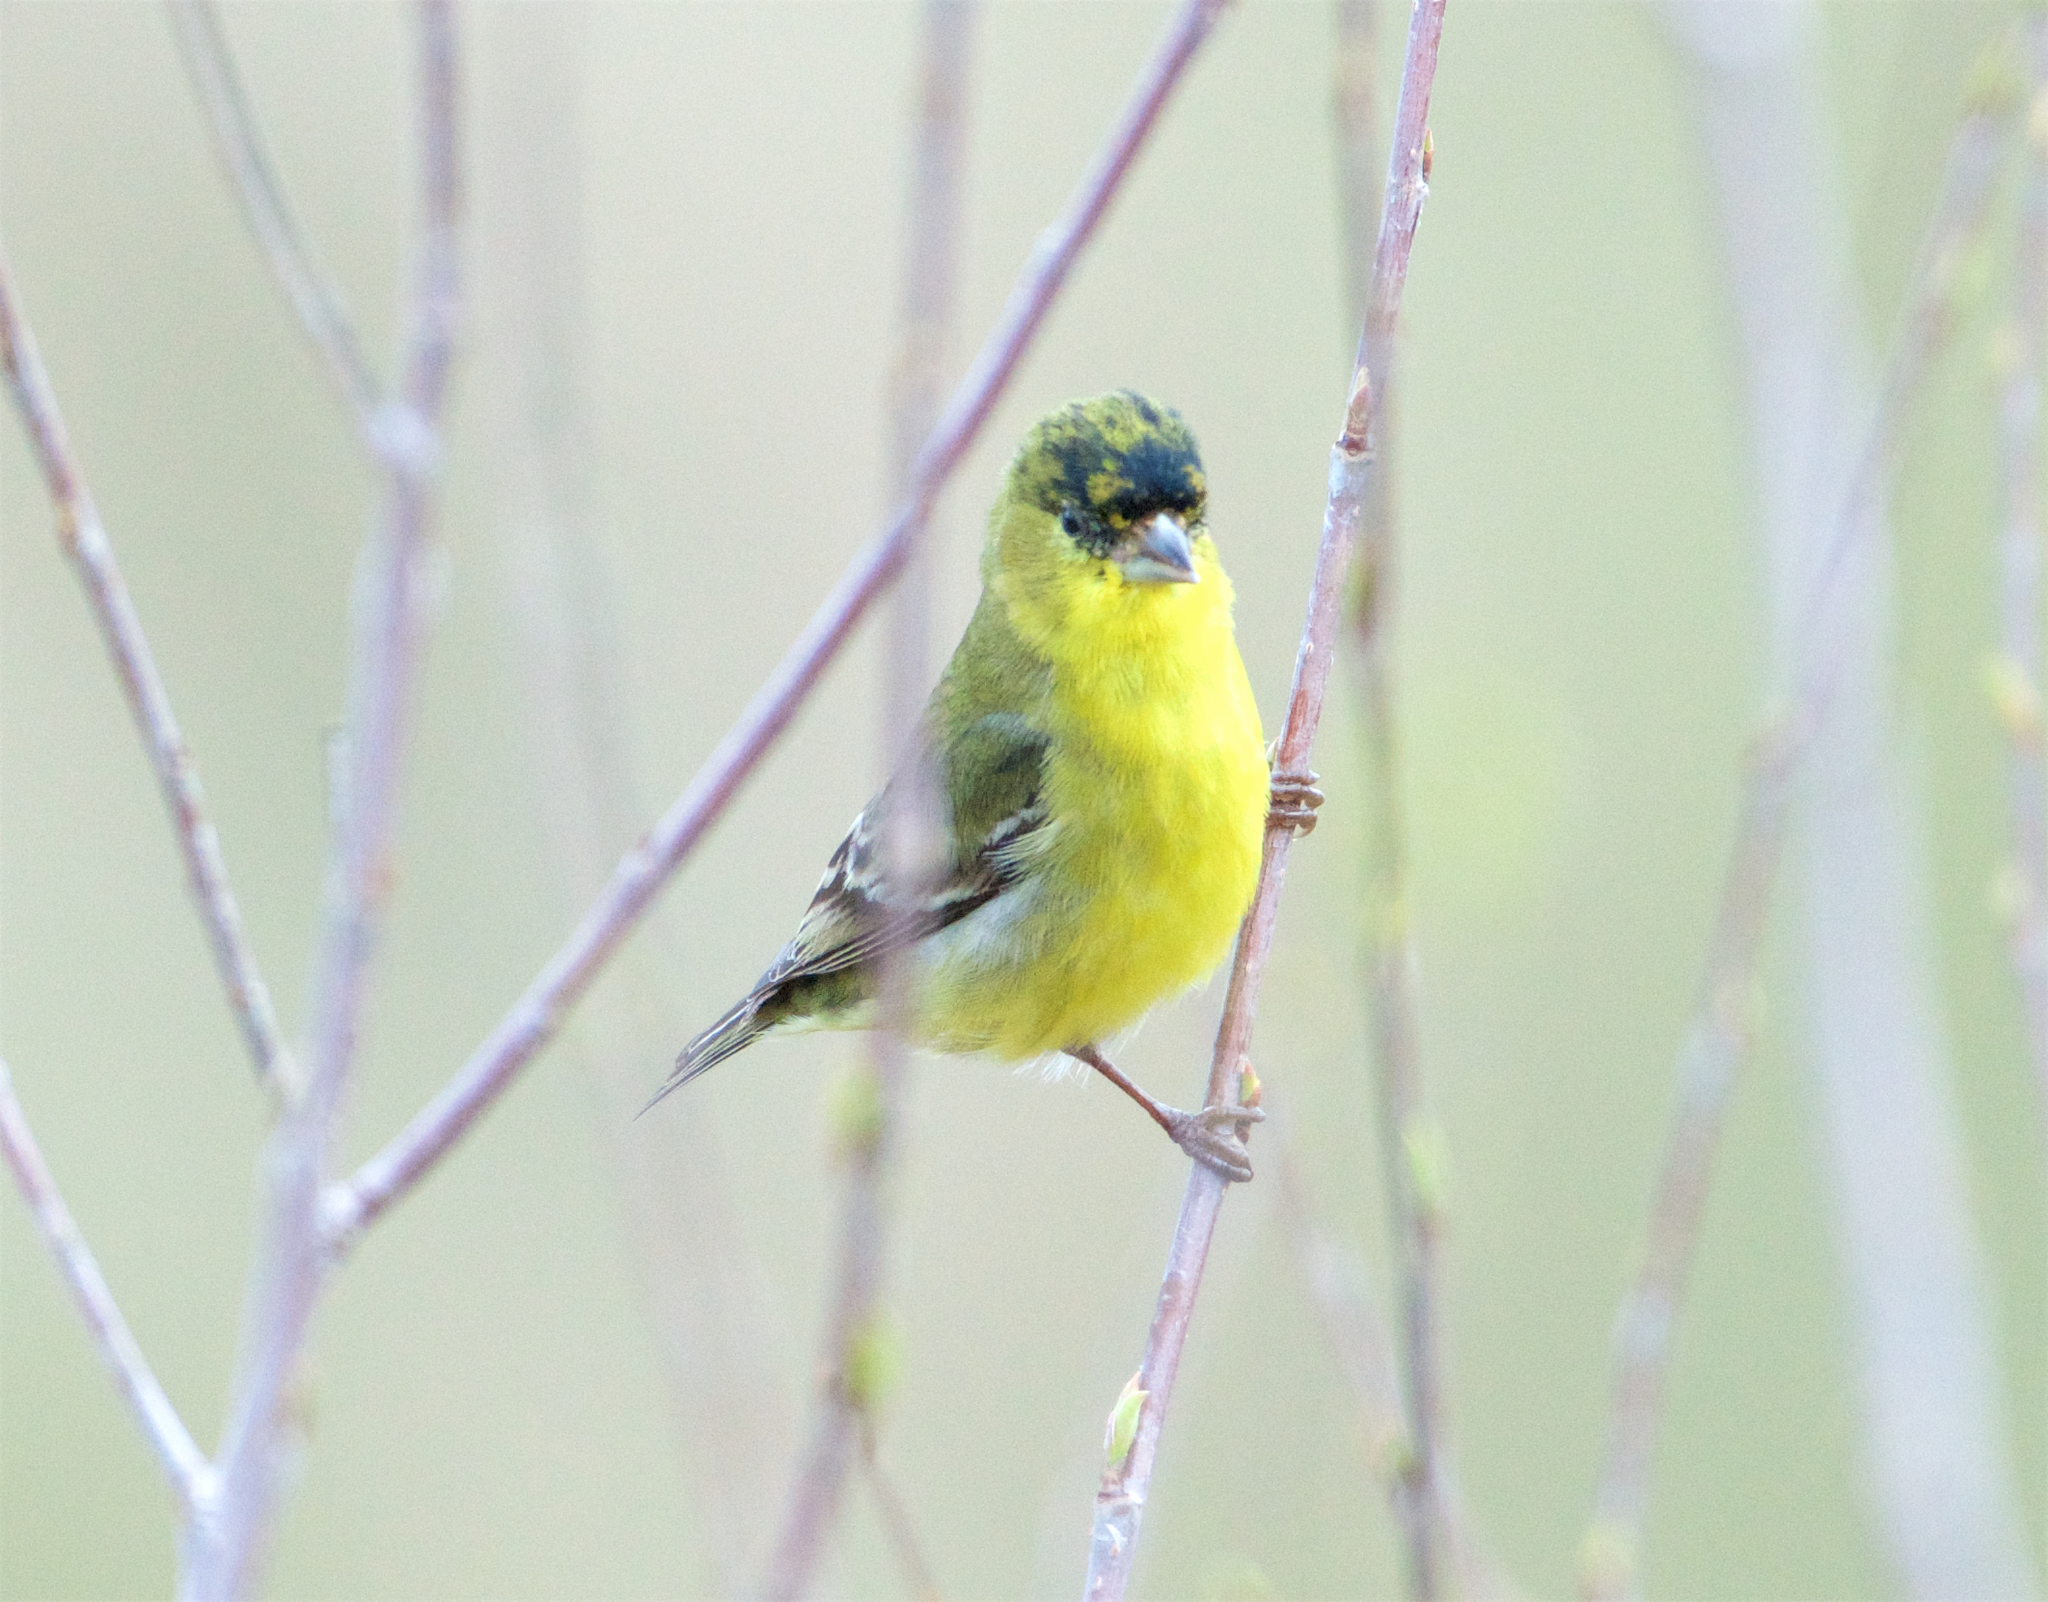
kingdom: Animalia
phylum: Chordata
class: Aves
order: Passeriformes
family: Fringillidae
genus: Spinus
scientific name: Spinus psaltria
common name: Lesser goldfinch
